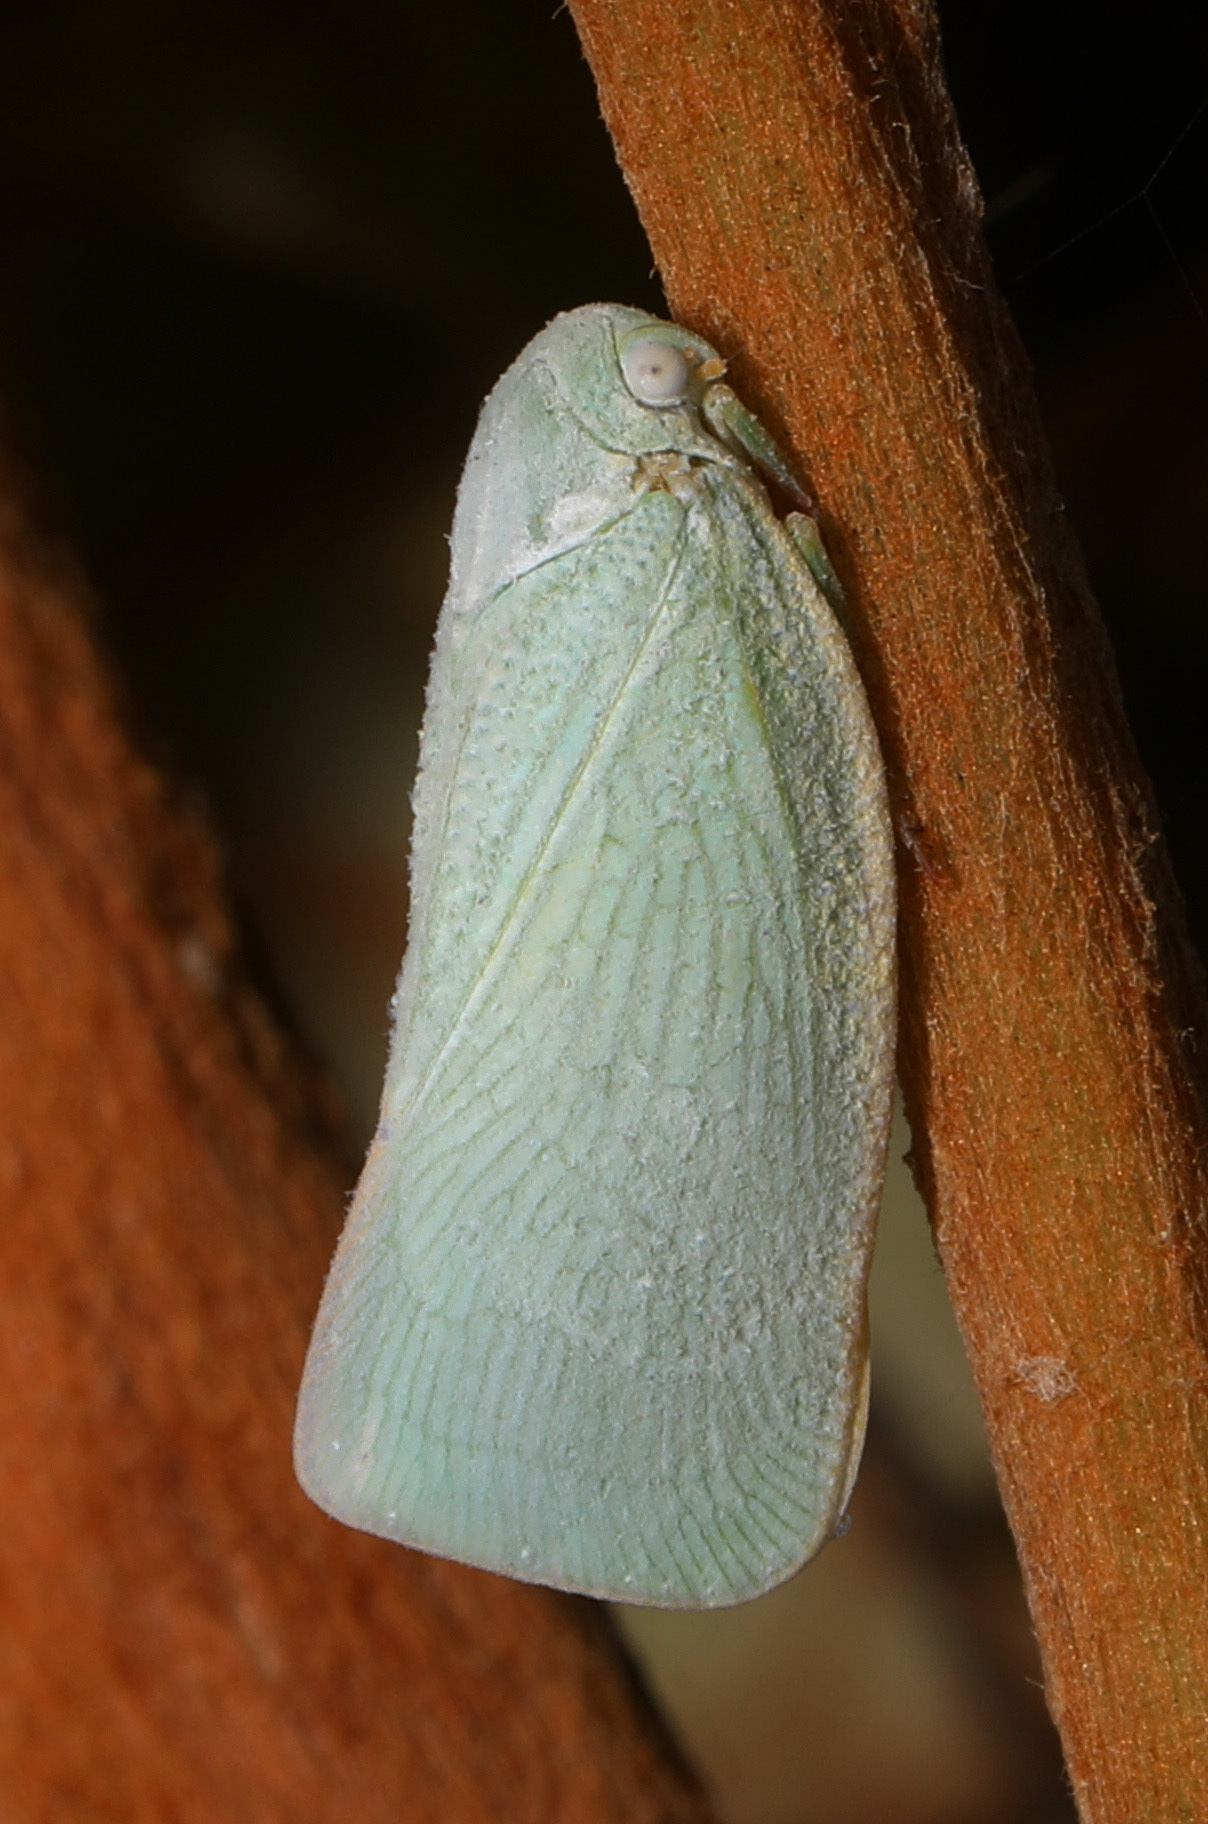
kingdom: Animalia
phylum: Arthropoda
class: Insecta
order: Hemiptera
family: Flatidae
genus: Flatormenis
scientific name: Flatormenis proxima
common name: Northern flatid planthopper
